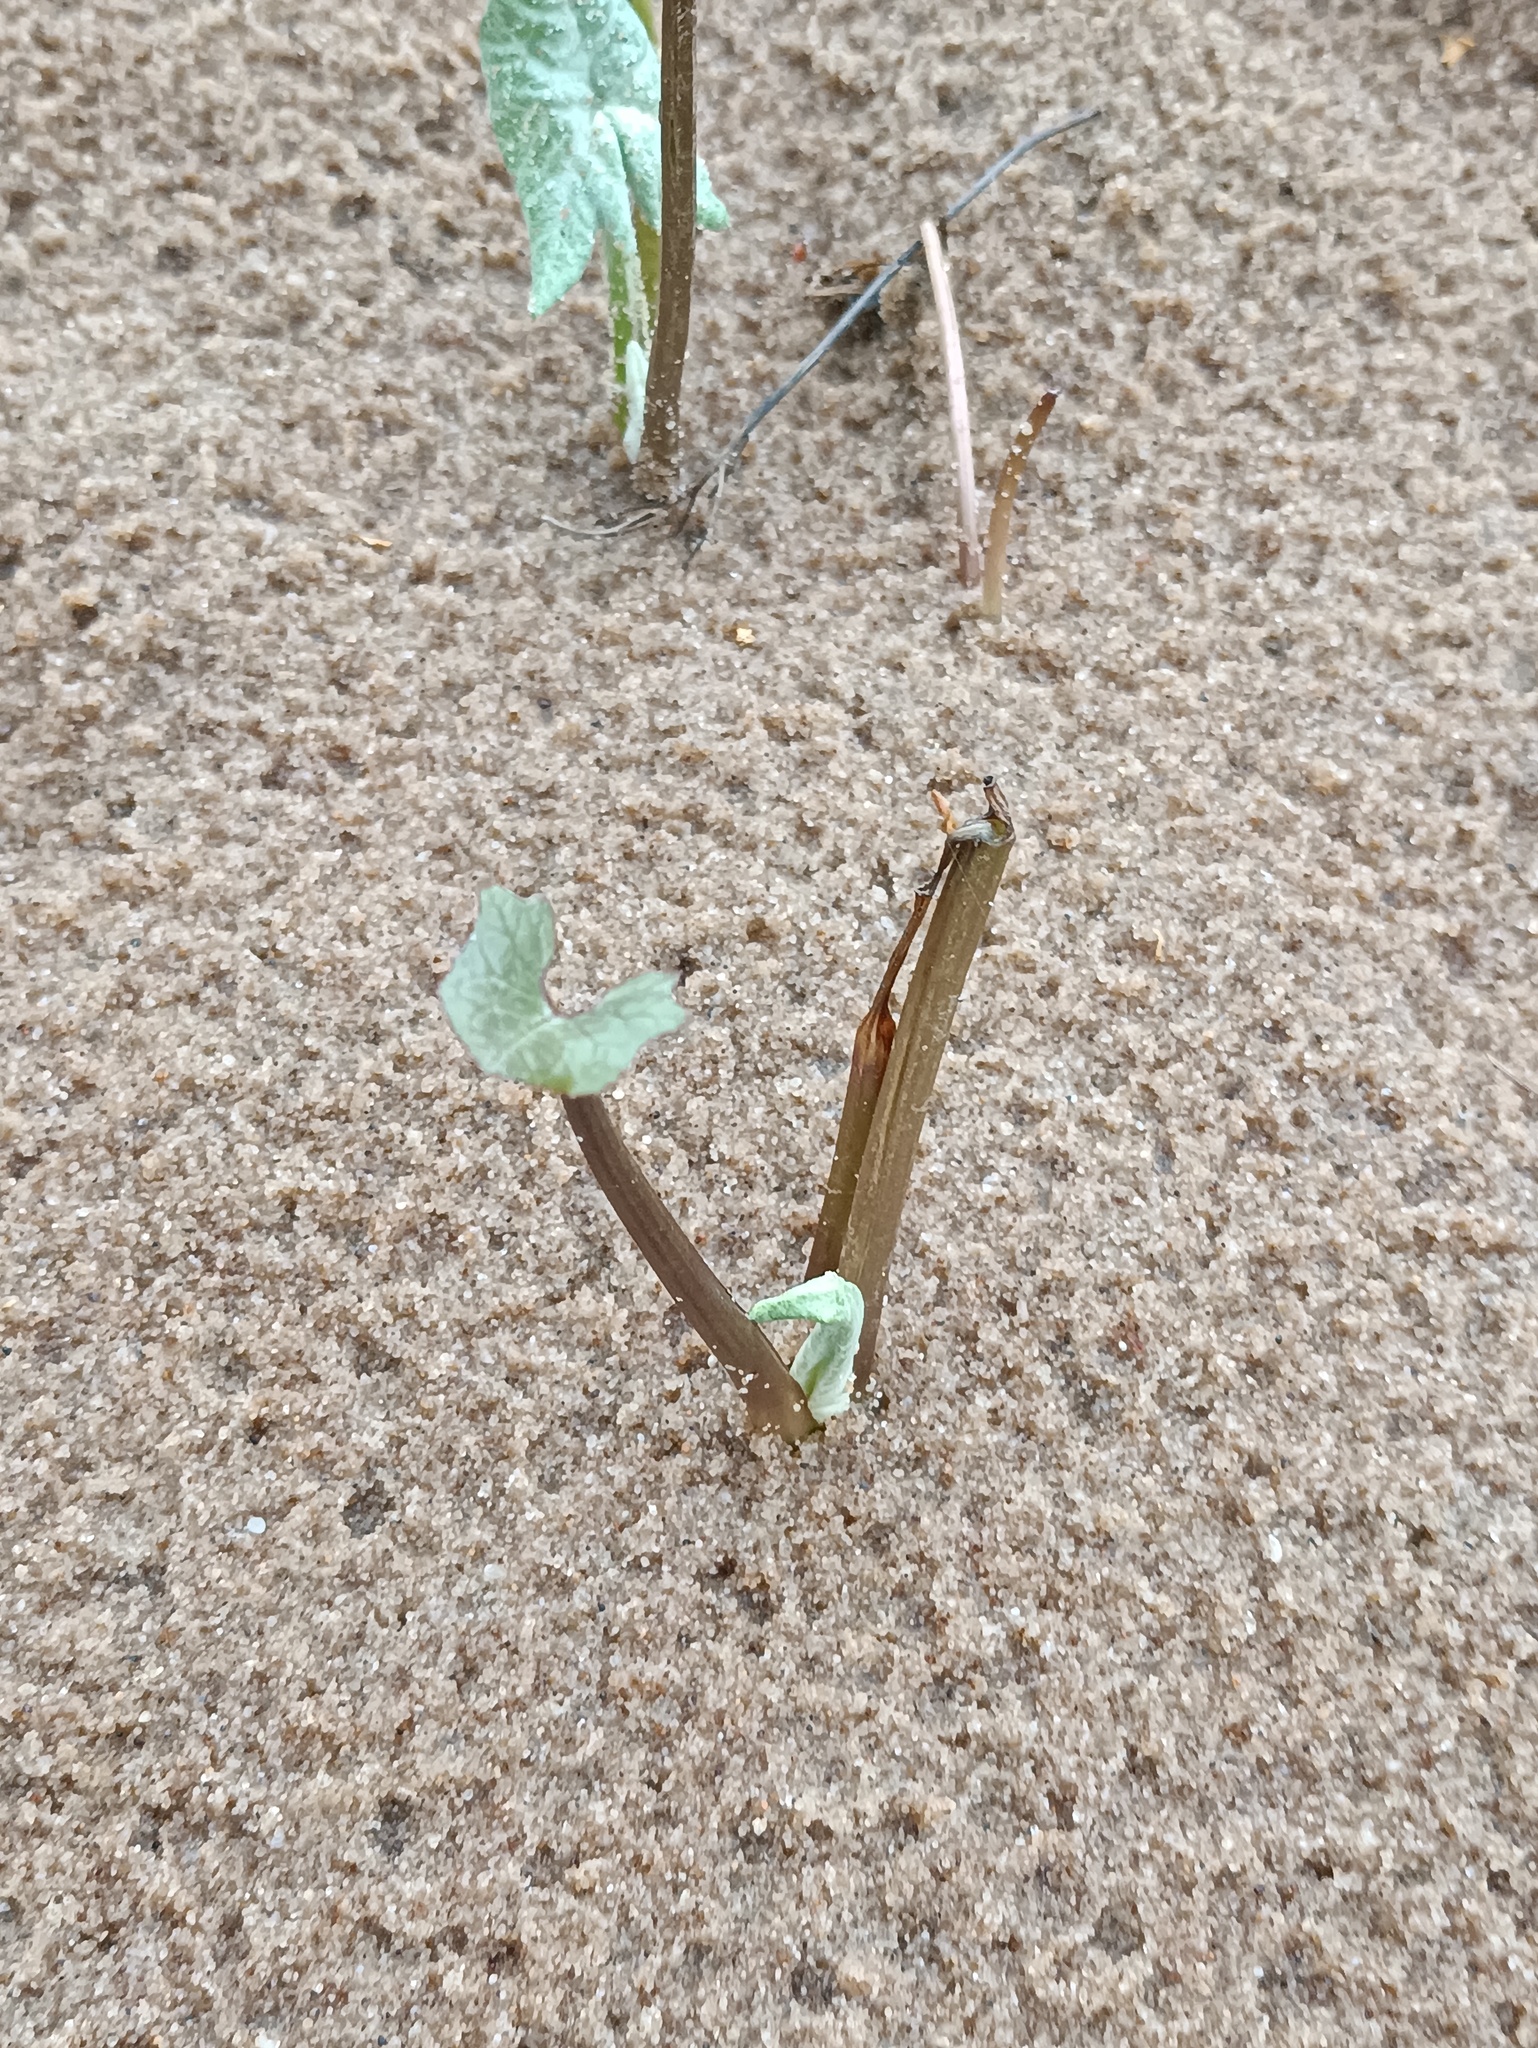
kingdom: Plantae
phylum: Tracheophyta
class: Magnoliopsida
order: Asterales
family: Asteraceae
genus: Petasites
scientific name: Petasites spurius
